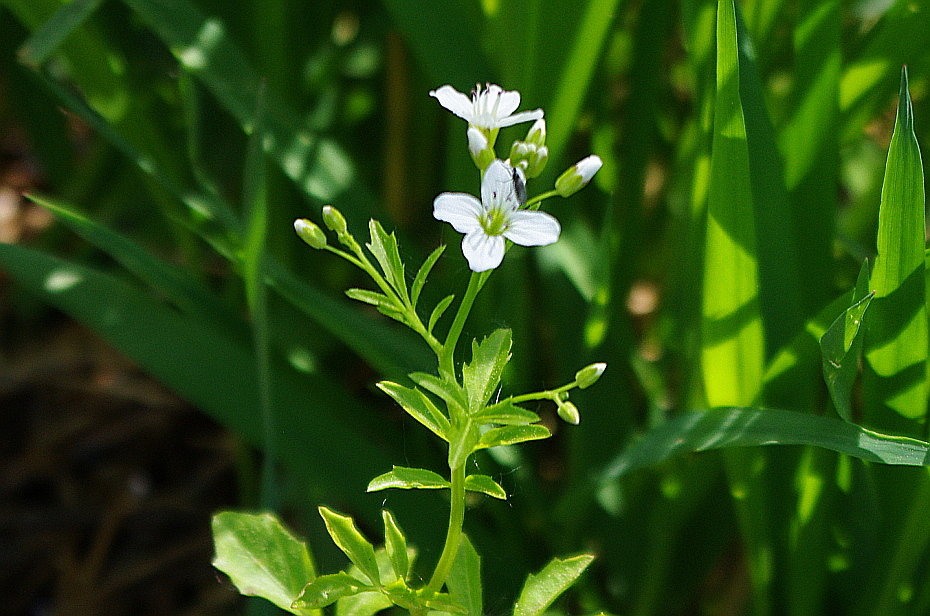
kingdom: Plantae
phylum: Tracheophyta
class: Magnoliopsida
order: Brassicales
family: Brassicaceae
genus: Cardamine
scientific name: Cardamine amara
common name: Large bitter-cress
